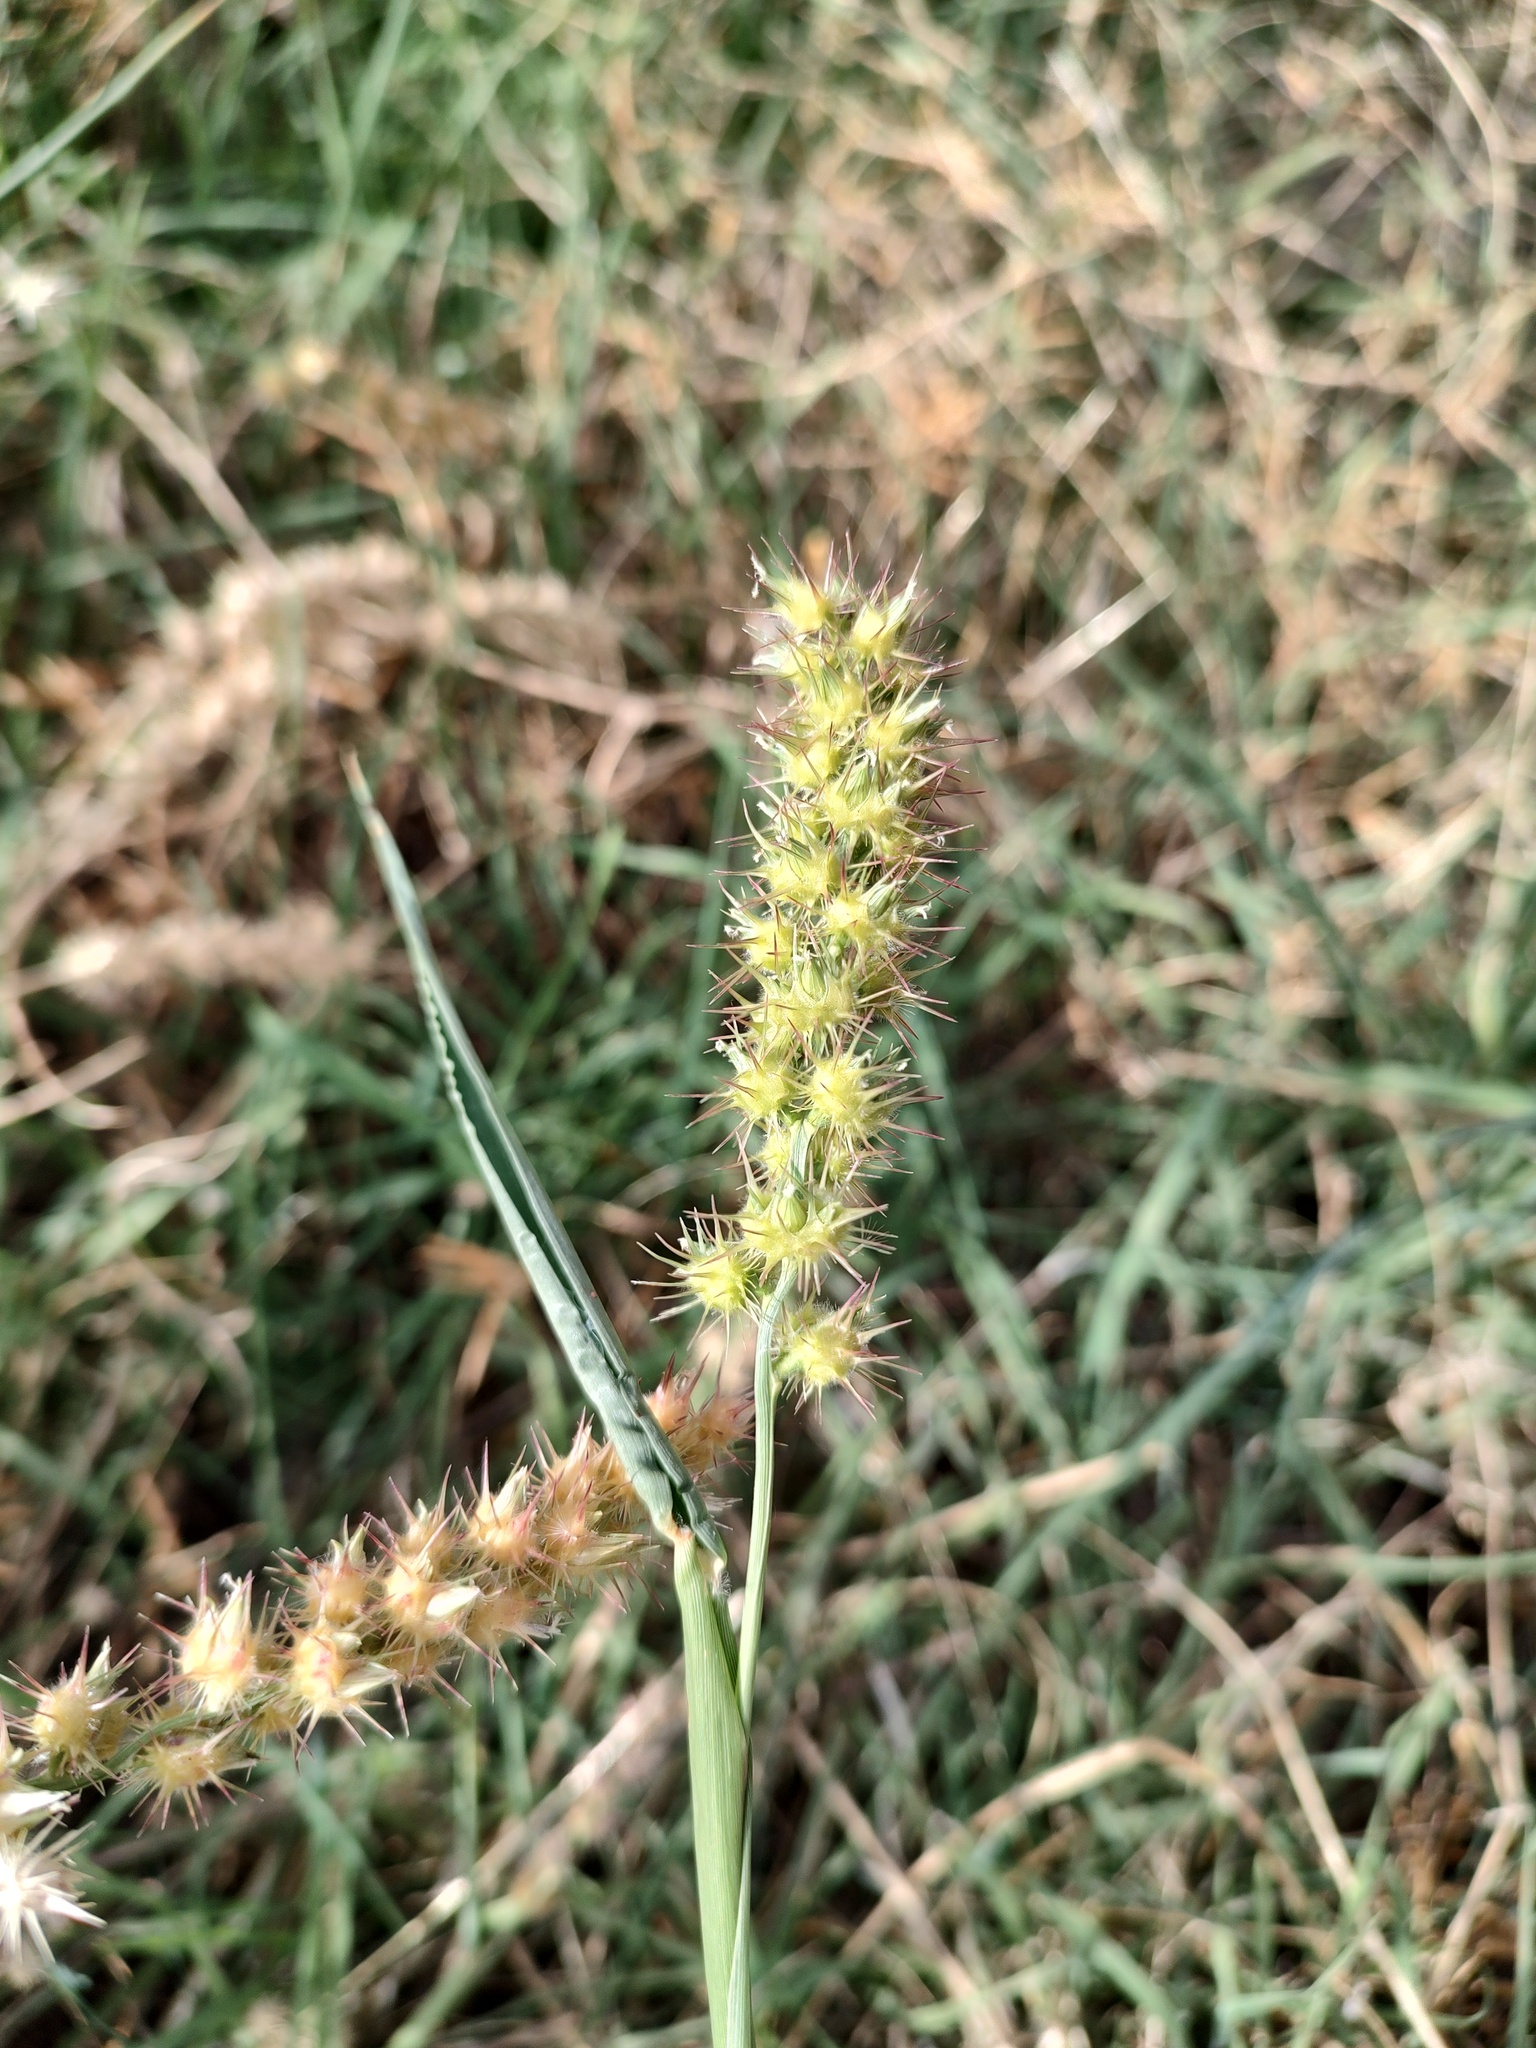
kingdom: Plantae
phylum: Tracheophyta
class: Liliopsida
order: Poales
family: Poaceae
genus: Cenchrus
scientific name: Cenchrus longispinus
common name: Mat sandbur
